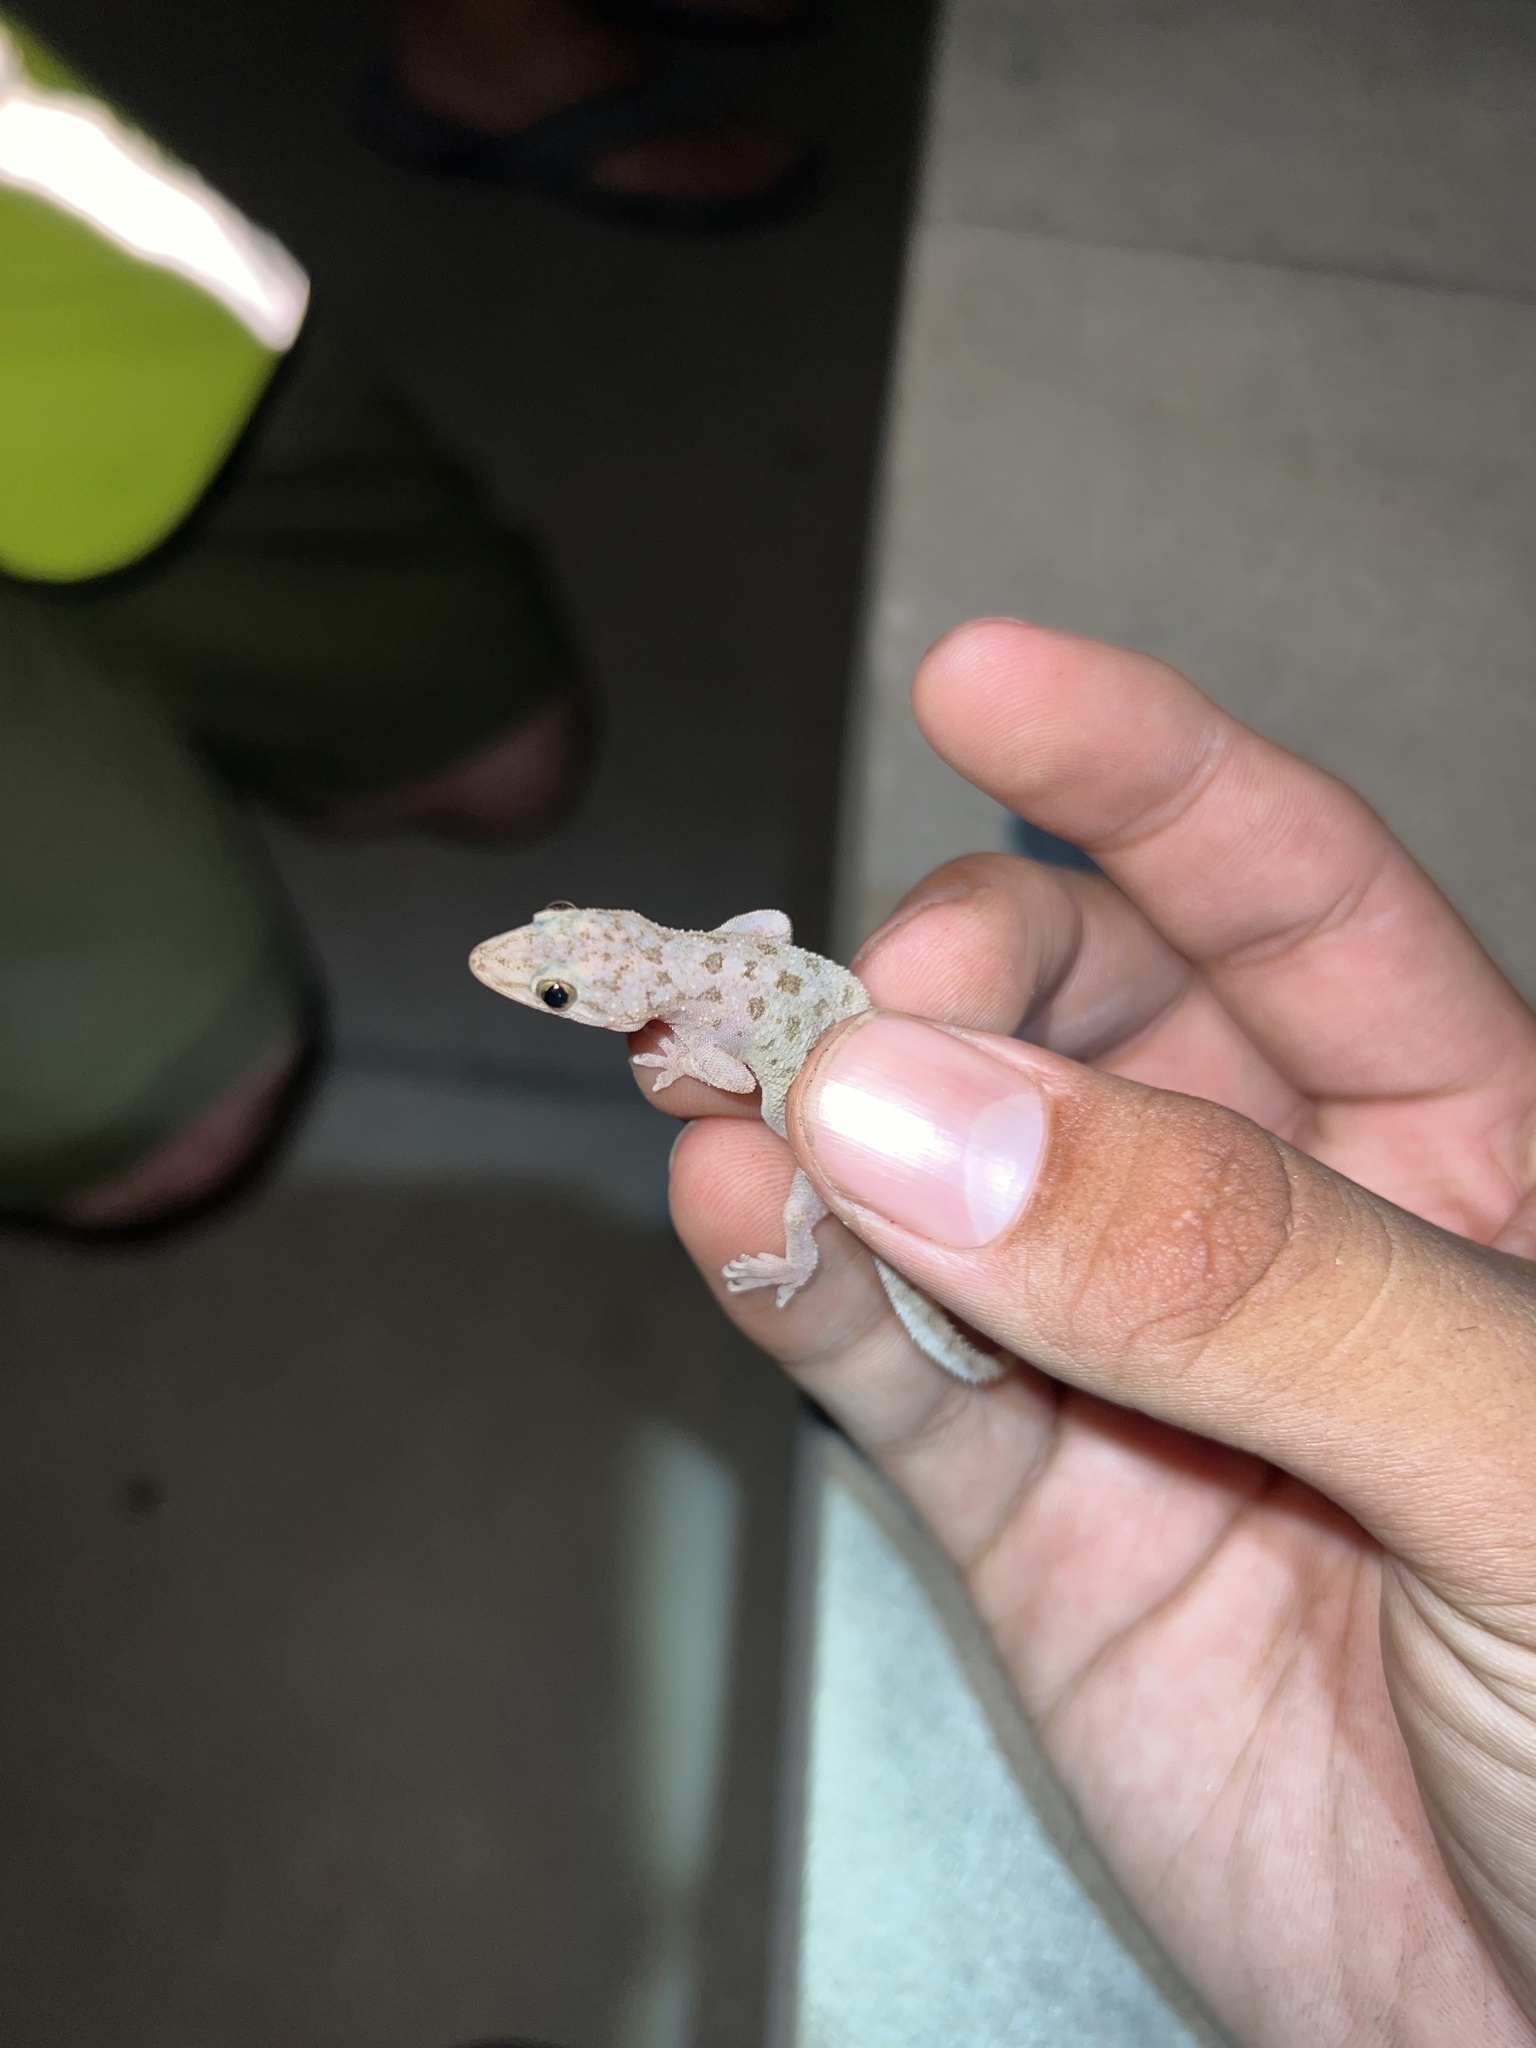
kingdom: Animalia
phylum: Chordata
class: Squamata
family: Gekkonidae
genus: Hemidactylus
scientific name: Hemidactylus parvimaculatus
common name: Spotted house gecko
